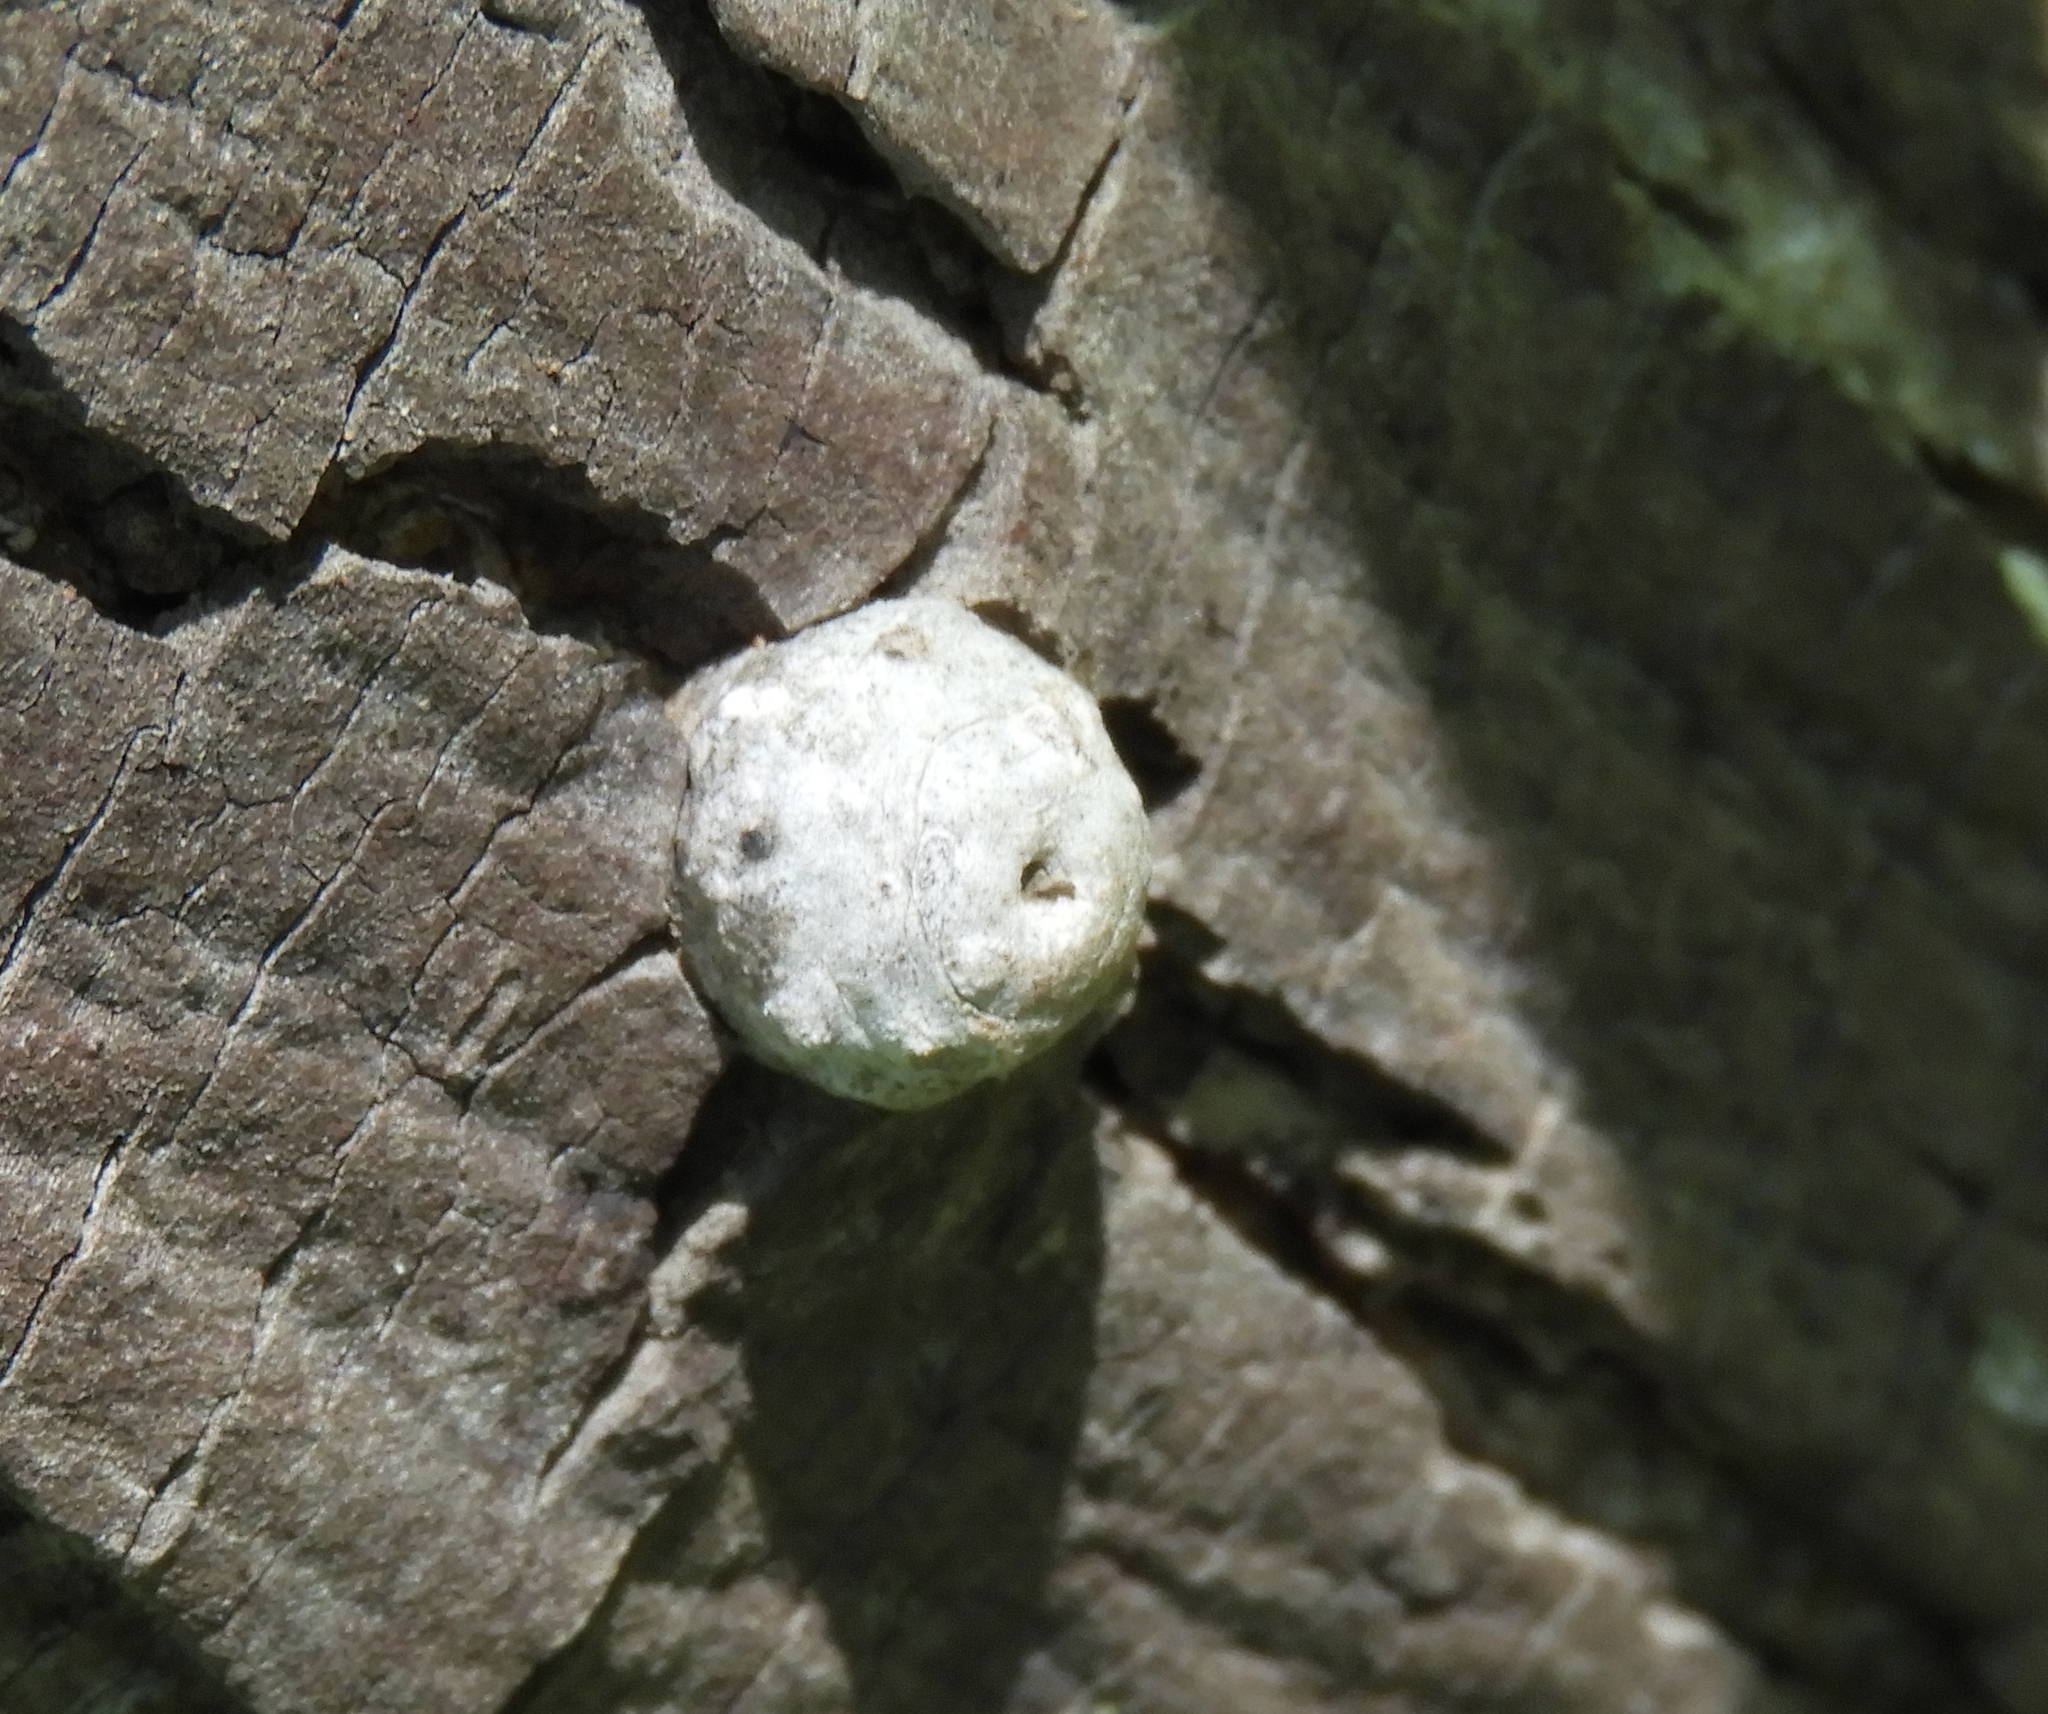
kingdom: Animalia
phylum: Arthropoda
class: Insecta
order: Hemiptera
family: Coccidae
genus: Ceroplastes
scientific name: Ceroplastes
